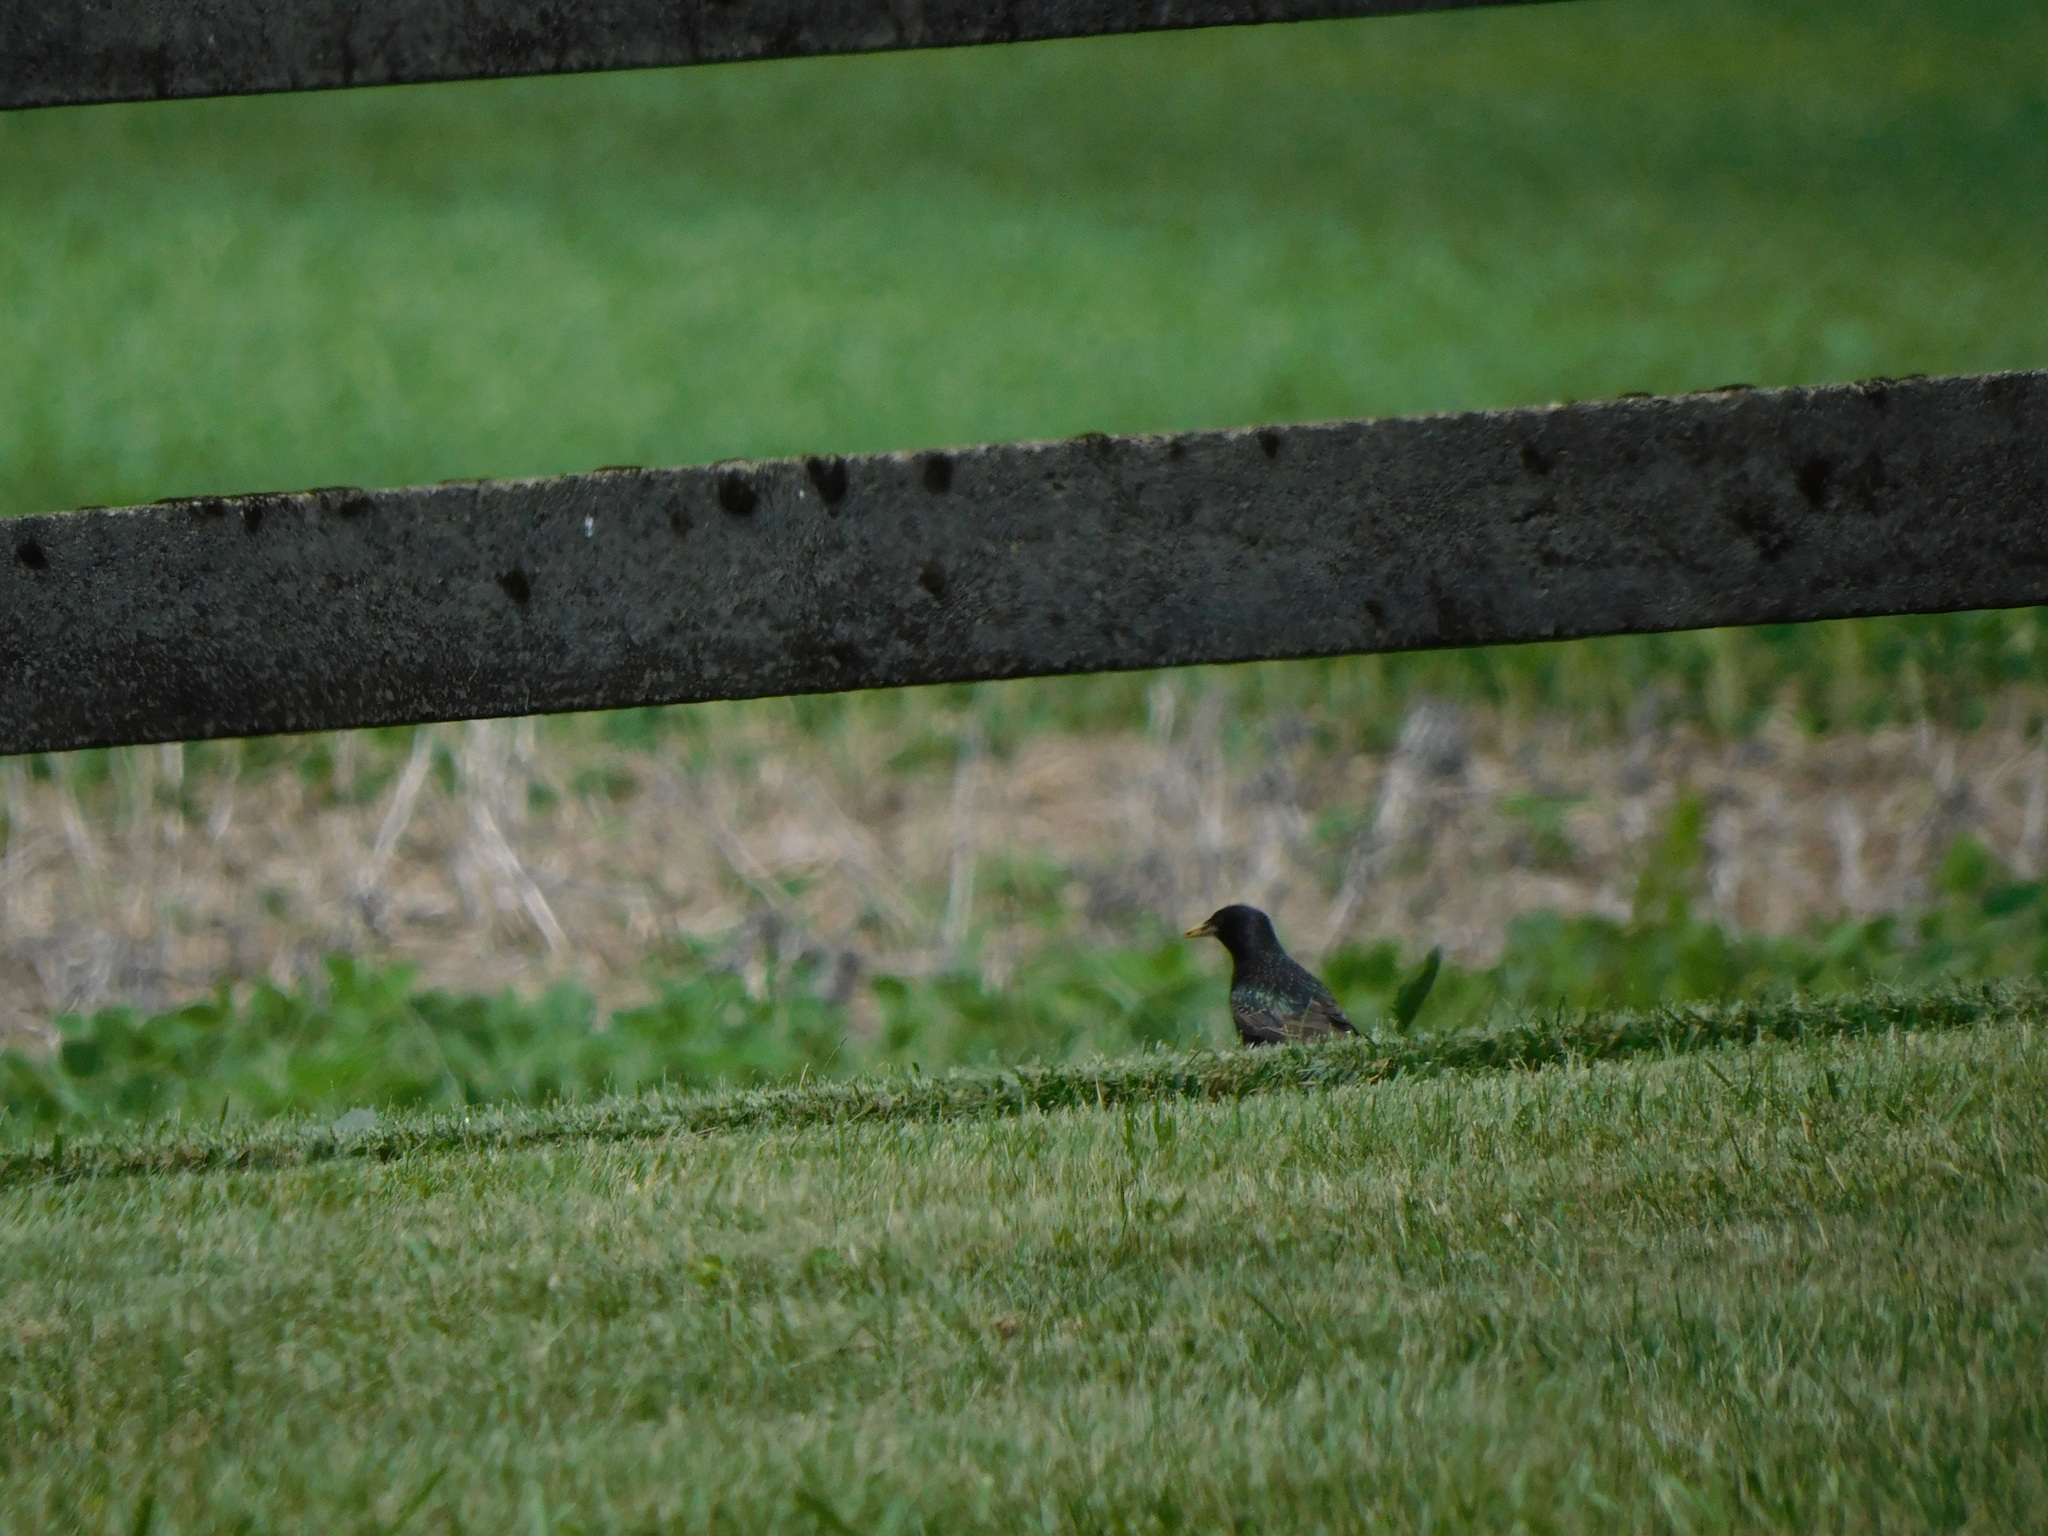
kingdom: Animalia
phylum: Chordata
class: Aves
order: Passeriformes
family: Sturnidae
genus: Sturnus
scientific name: Sturnus vulgaris
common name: Common starling
